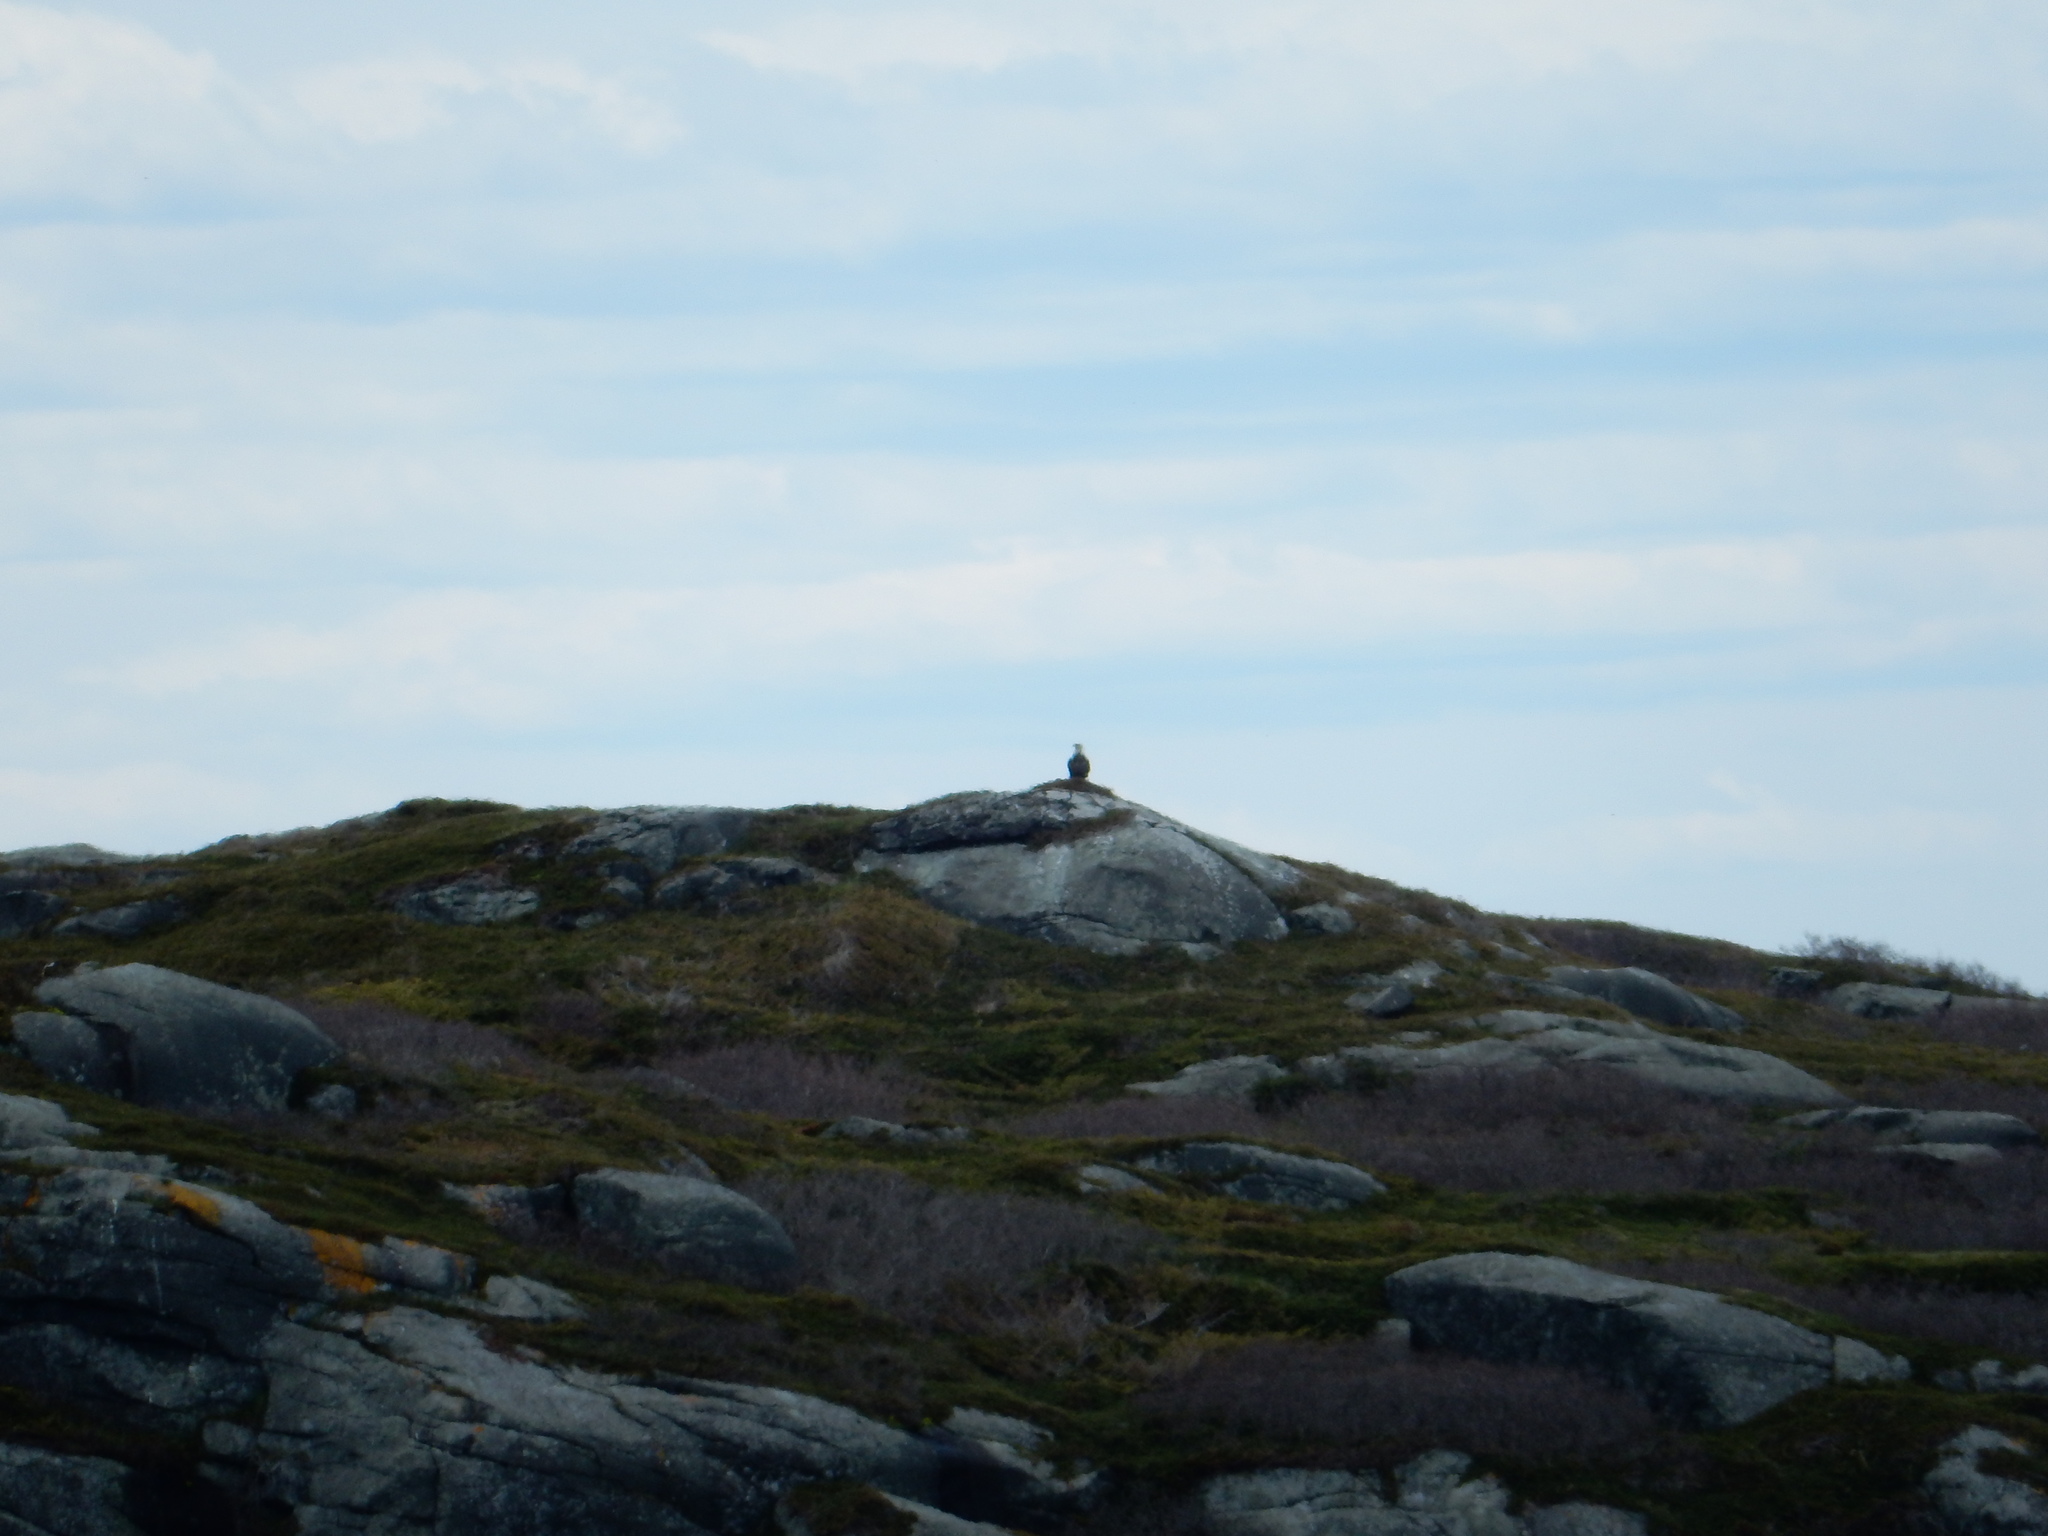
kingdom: Animalia
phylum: Chordata
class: Aves
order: Accipitriformes
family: Accipitridae
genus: Haliaeetus
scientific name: Haliaeetus leucocephalus
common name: Bald eagle
